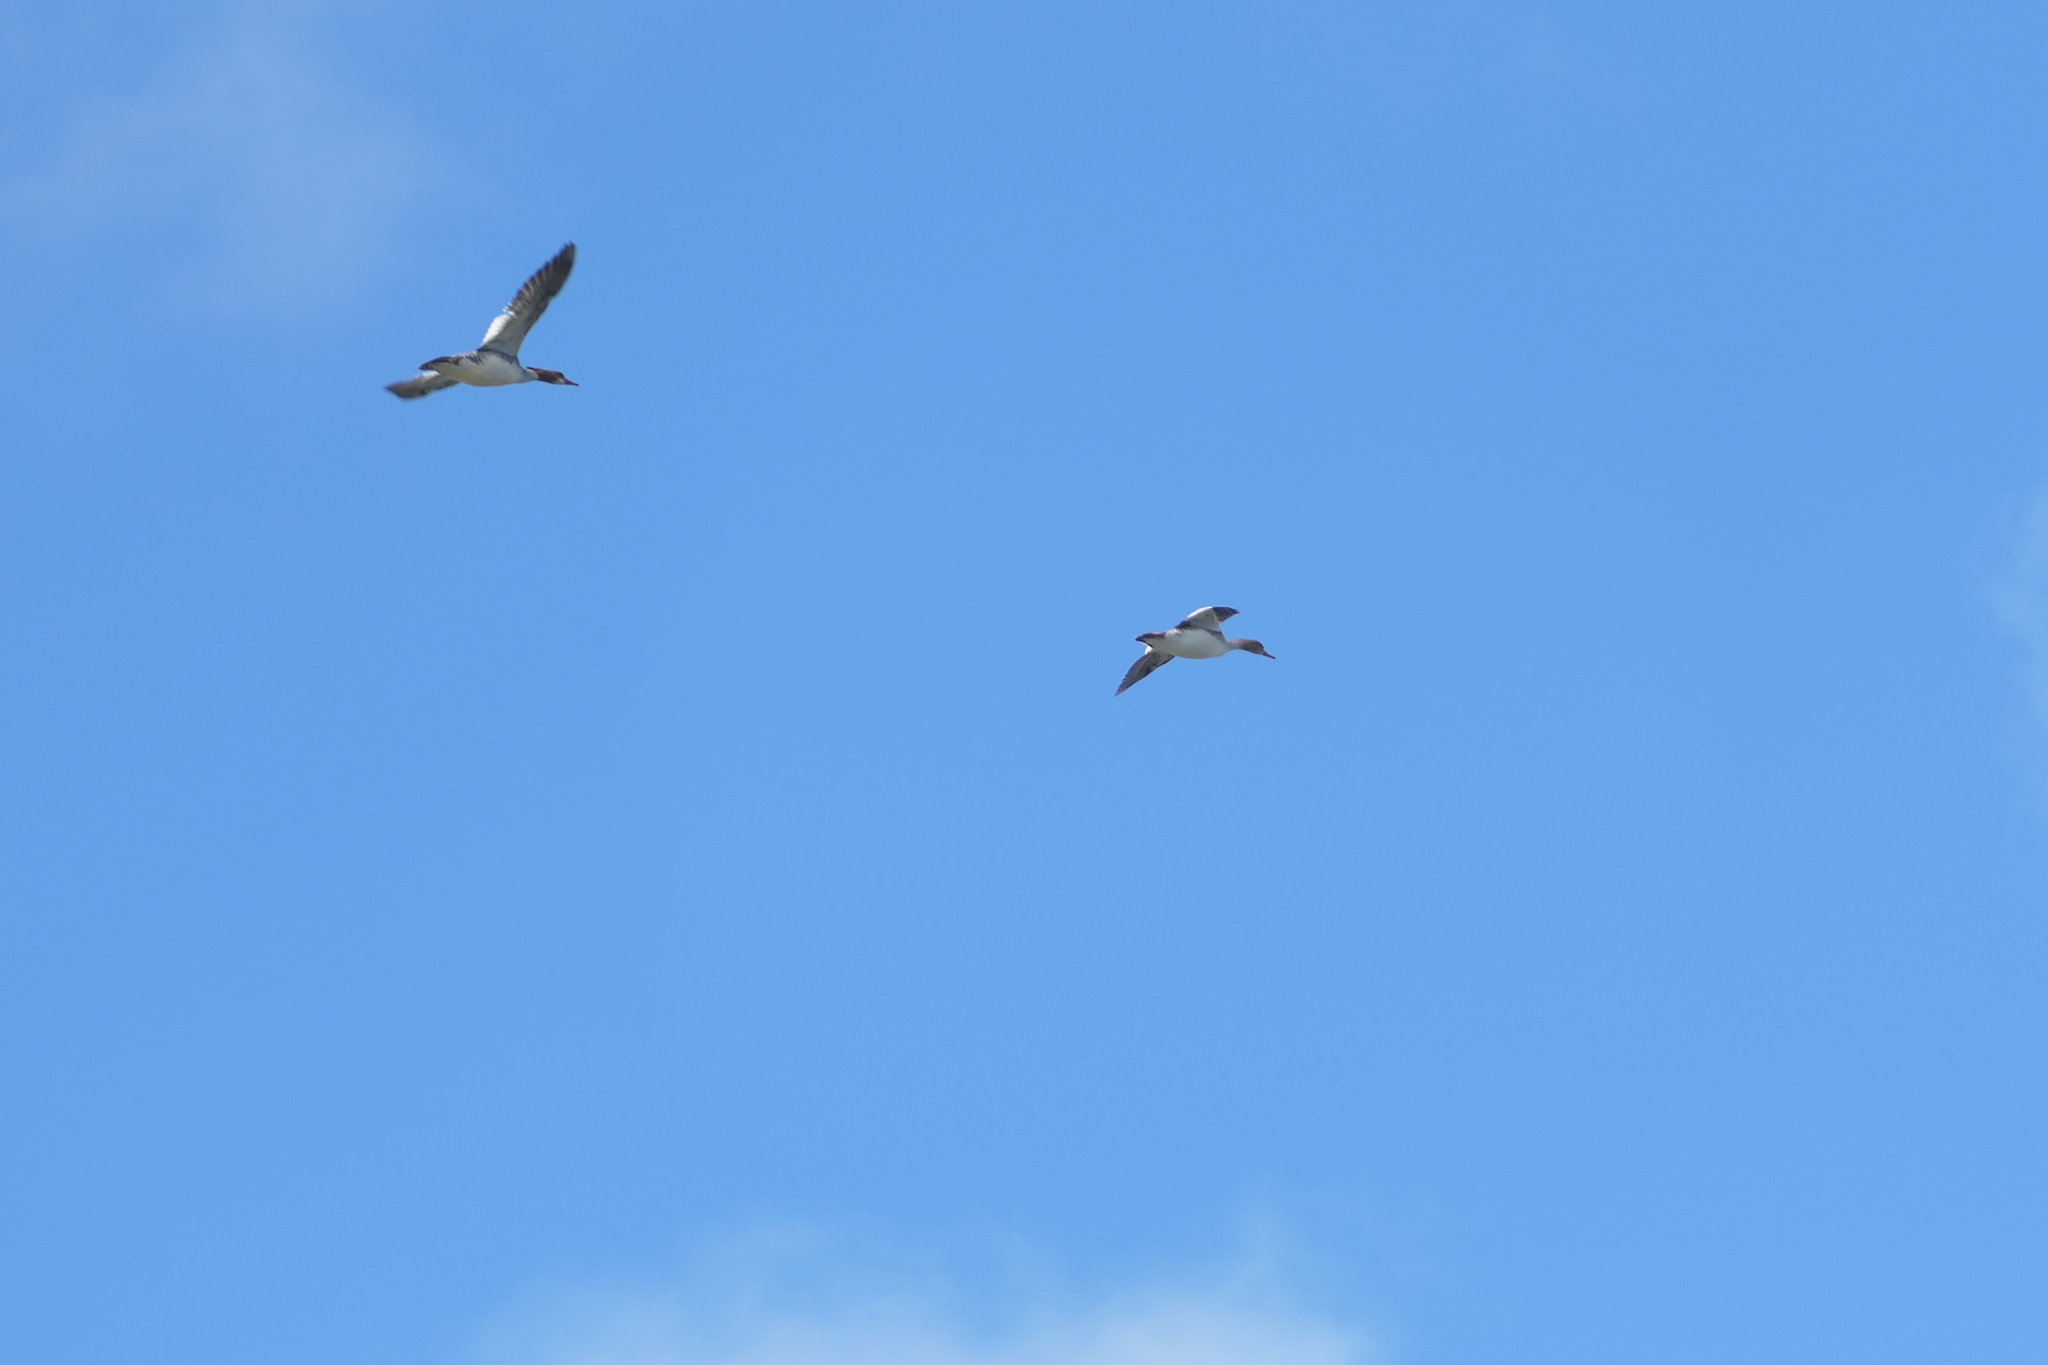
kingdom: Animalia
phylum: Chordata
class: Aves
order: Anseriformes
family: Anatidae
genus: Mergus
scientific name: Mergus serrator
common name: Red-breasted merganser
